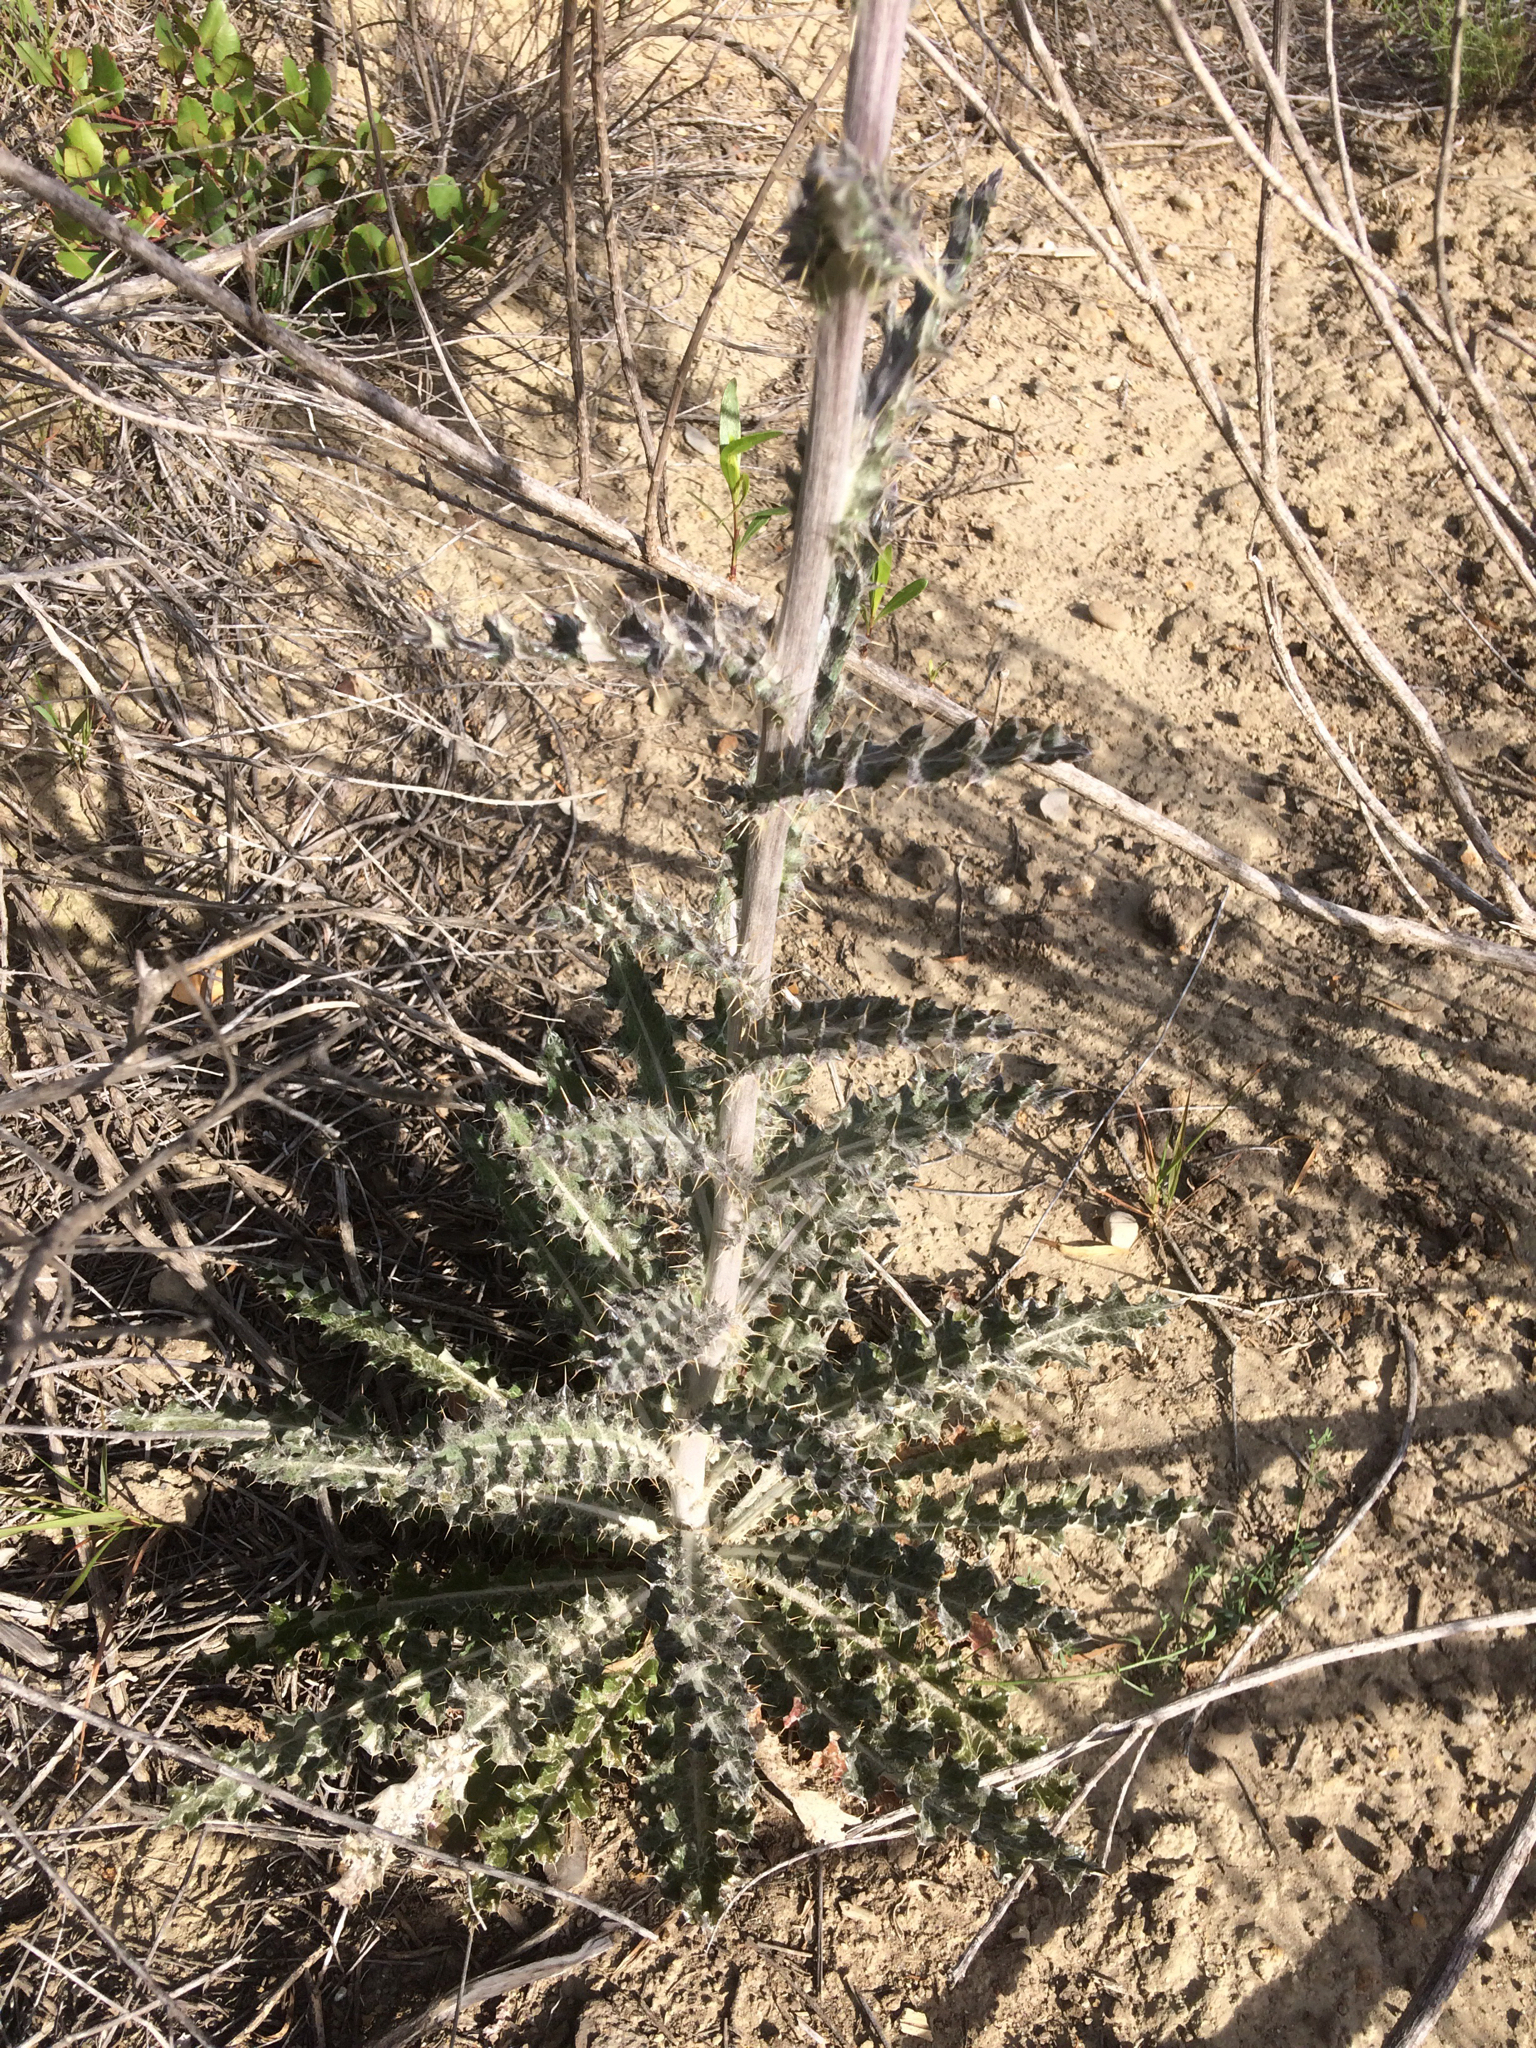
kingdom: Plantae
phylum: Tracheophyta
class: Magnoliopsida
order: Asterales
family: Asteraceae
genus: Cirsium
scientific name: Cirsium occidentale
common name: Western thistle
